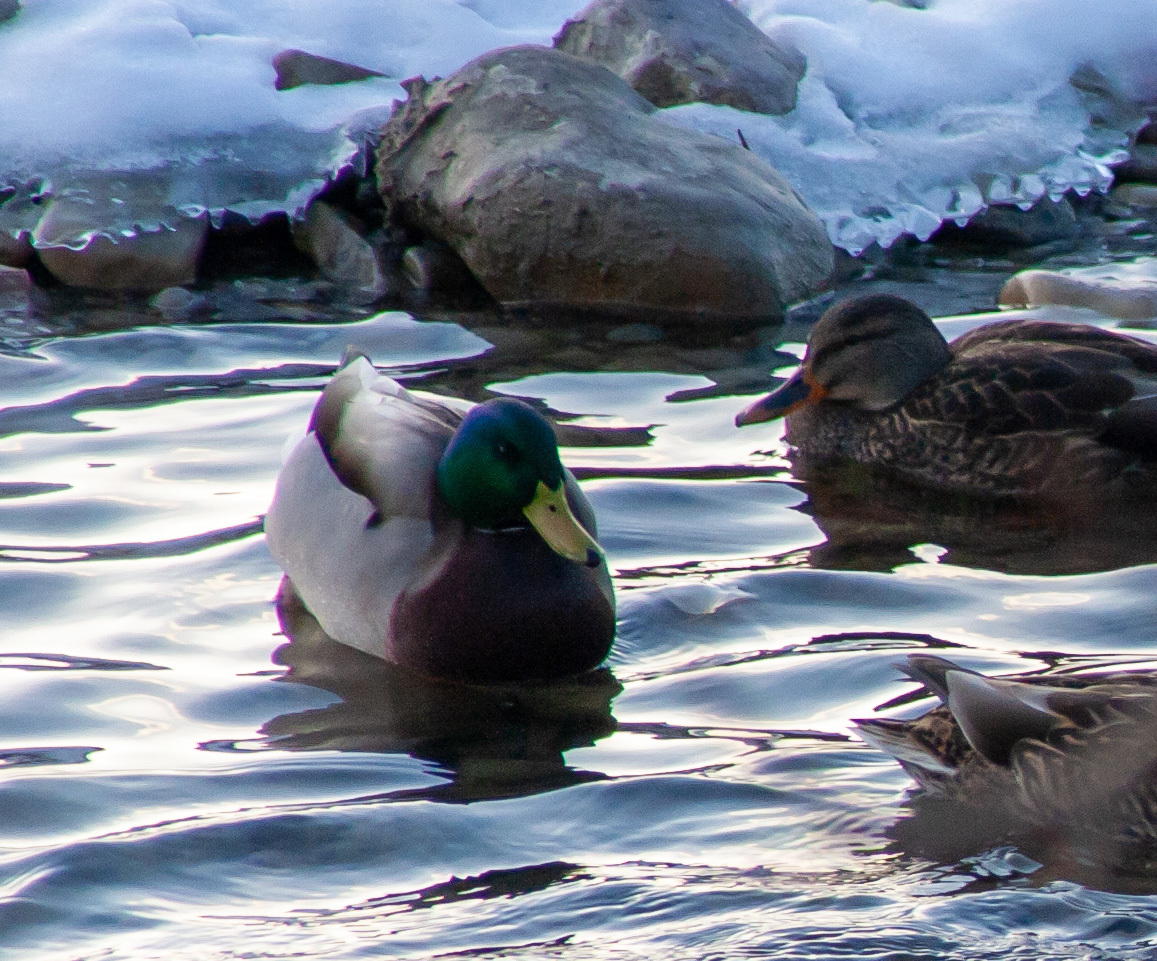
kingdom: Animalia
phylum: Chordata
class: Aves
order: Anseriformes
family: Anatidae
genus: Anas
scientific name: Anas platyrhynchos
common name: Mallard
